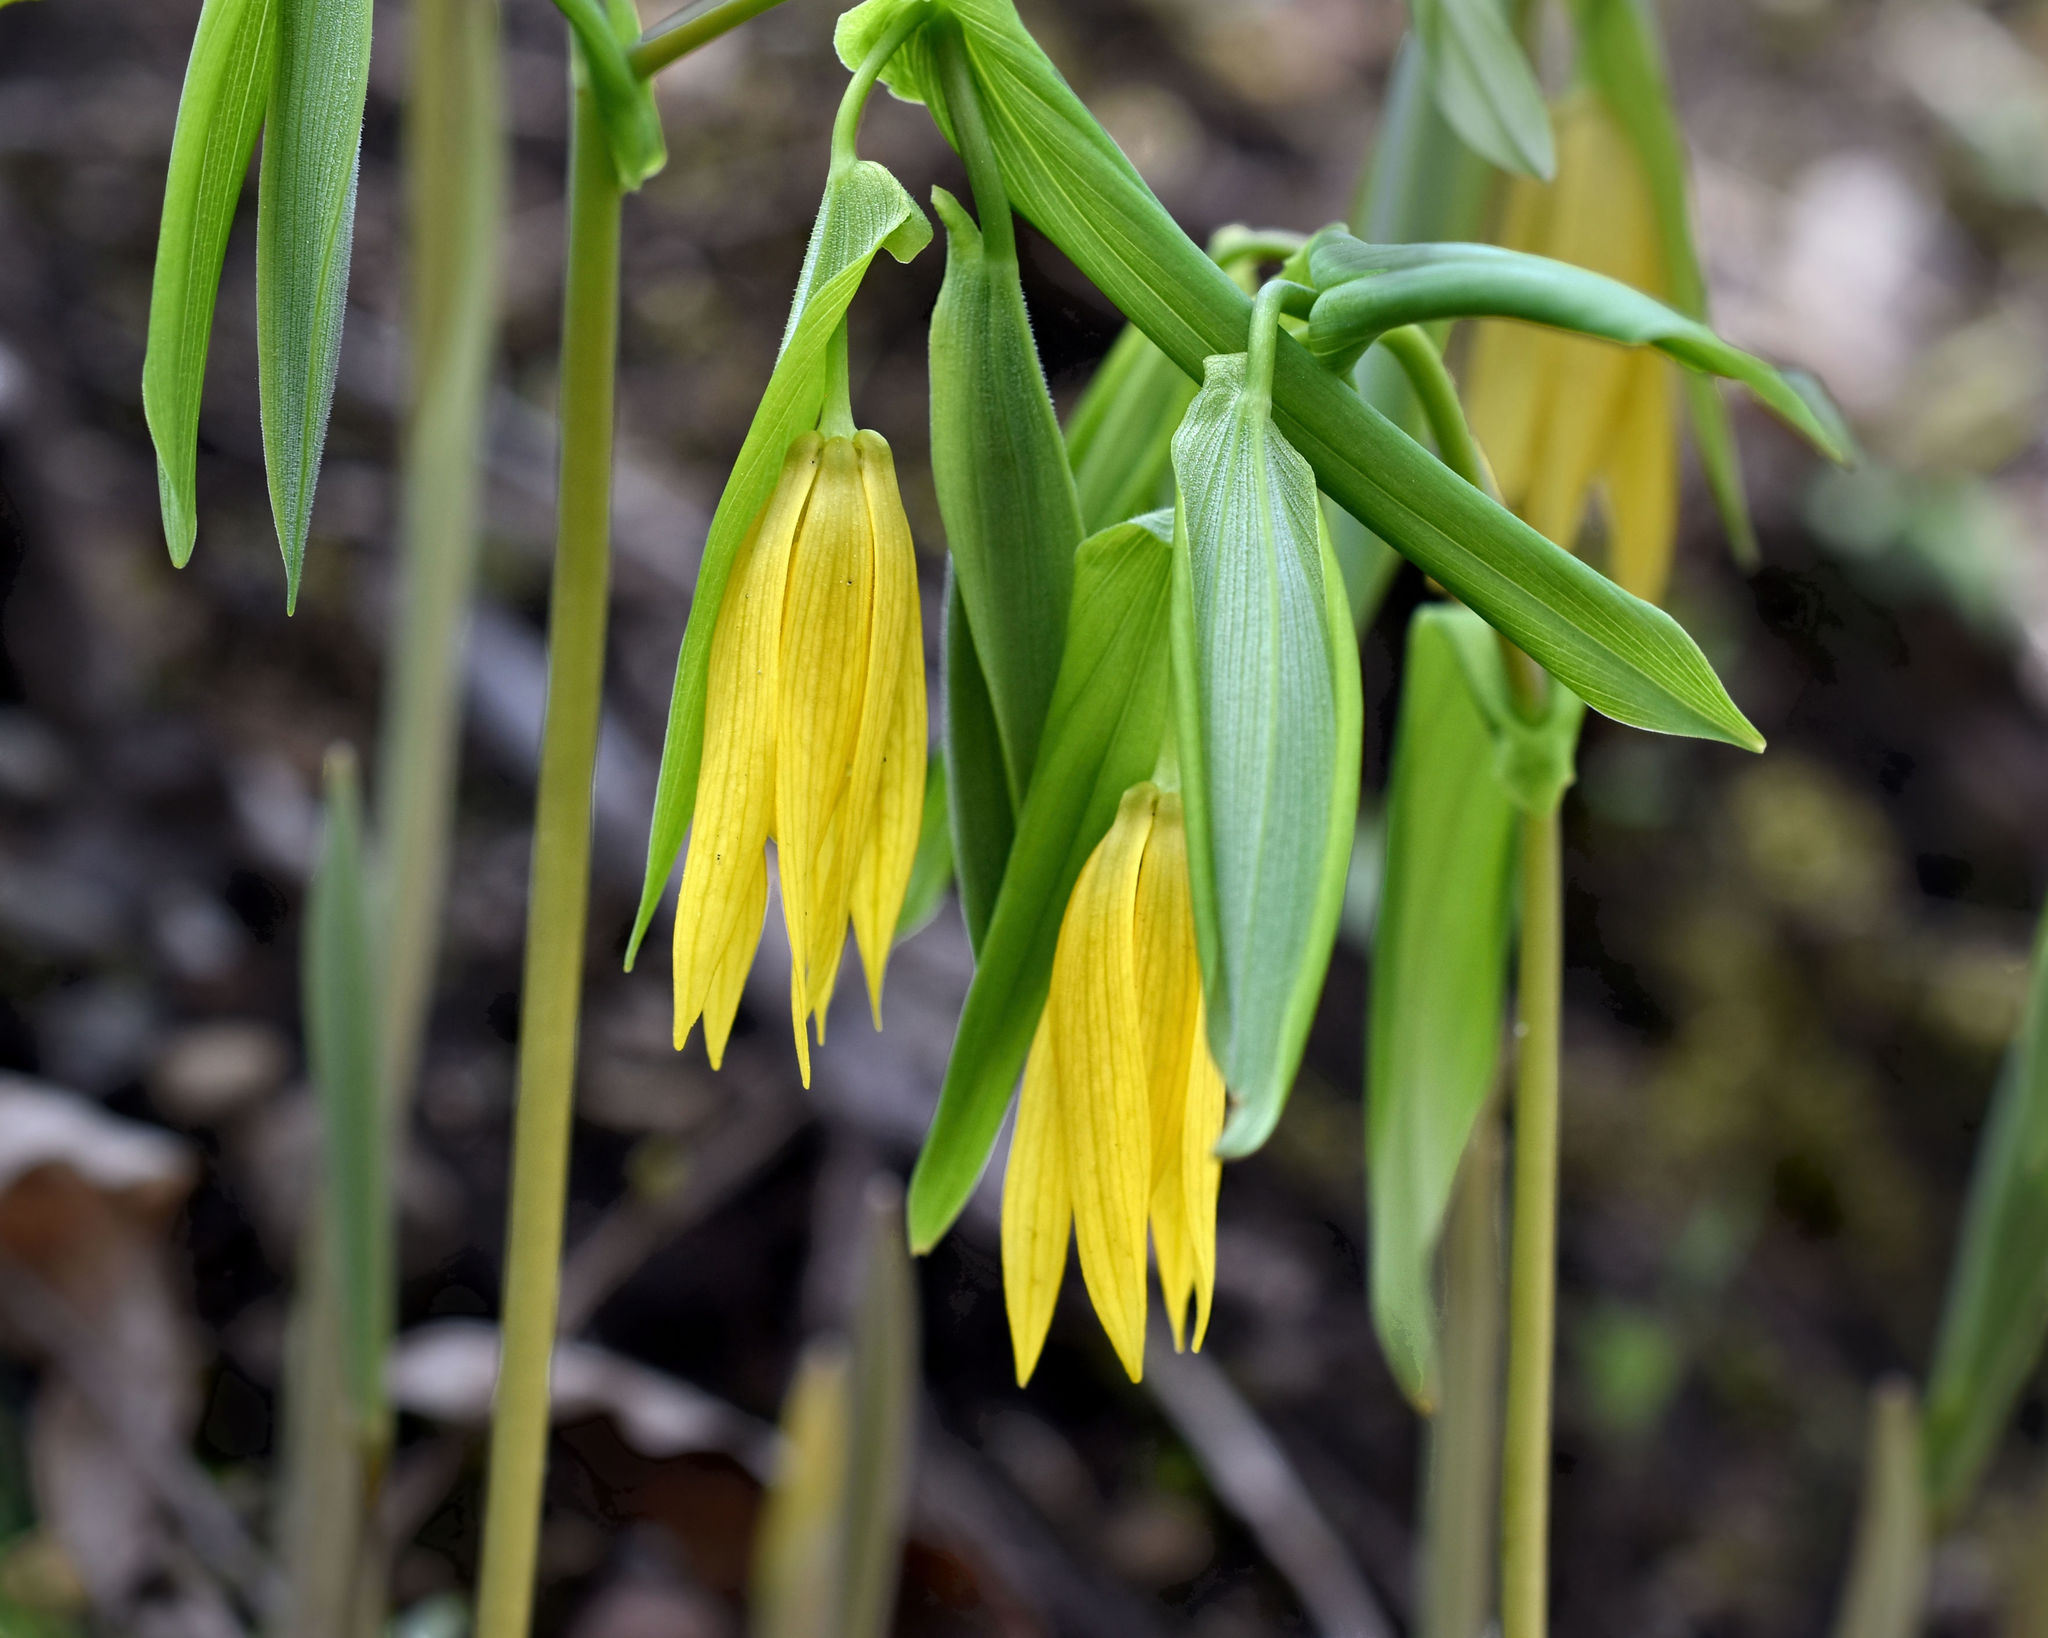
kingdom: Plantae
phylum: Tracheophyta
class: Liliopsida
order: Liliales
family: Colchicaceae
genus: Uvularia
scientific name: Uvularia grandiflora
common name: Bellwort
